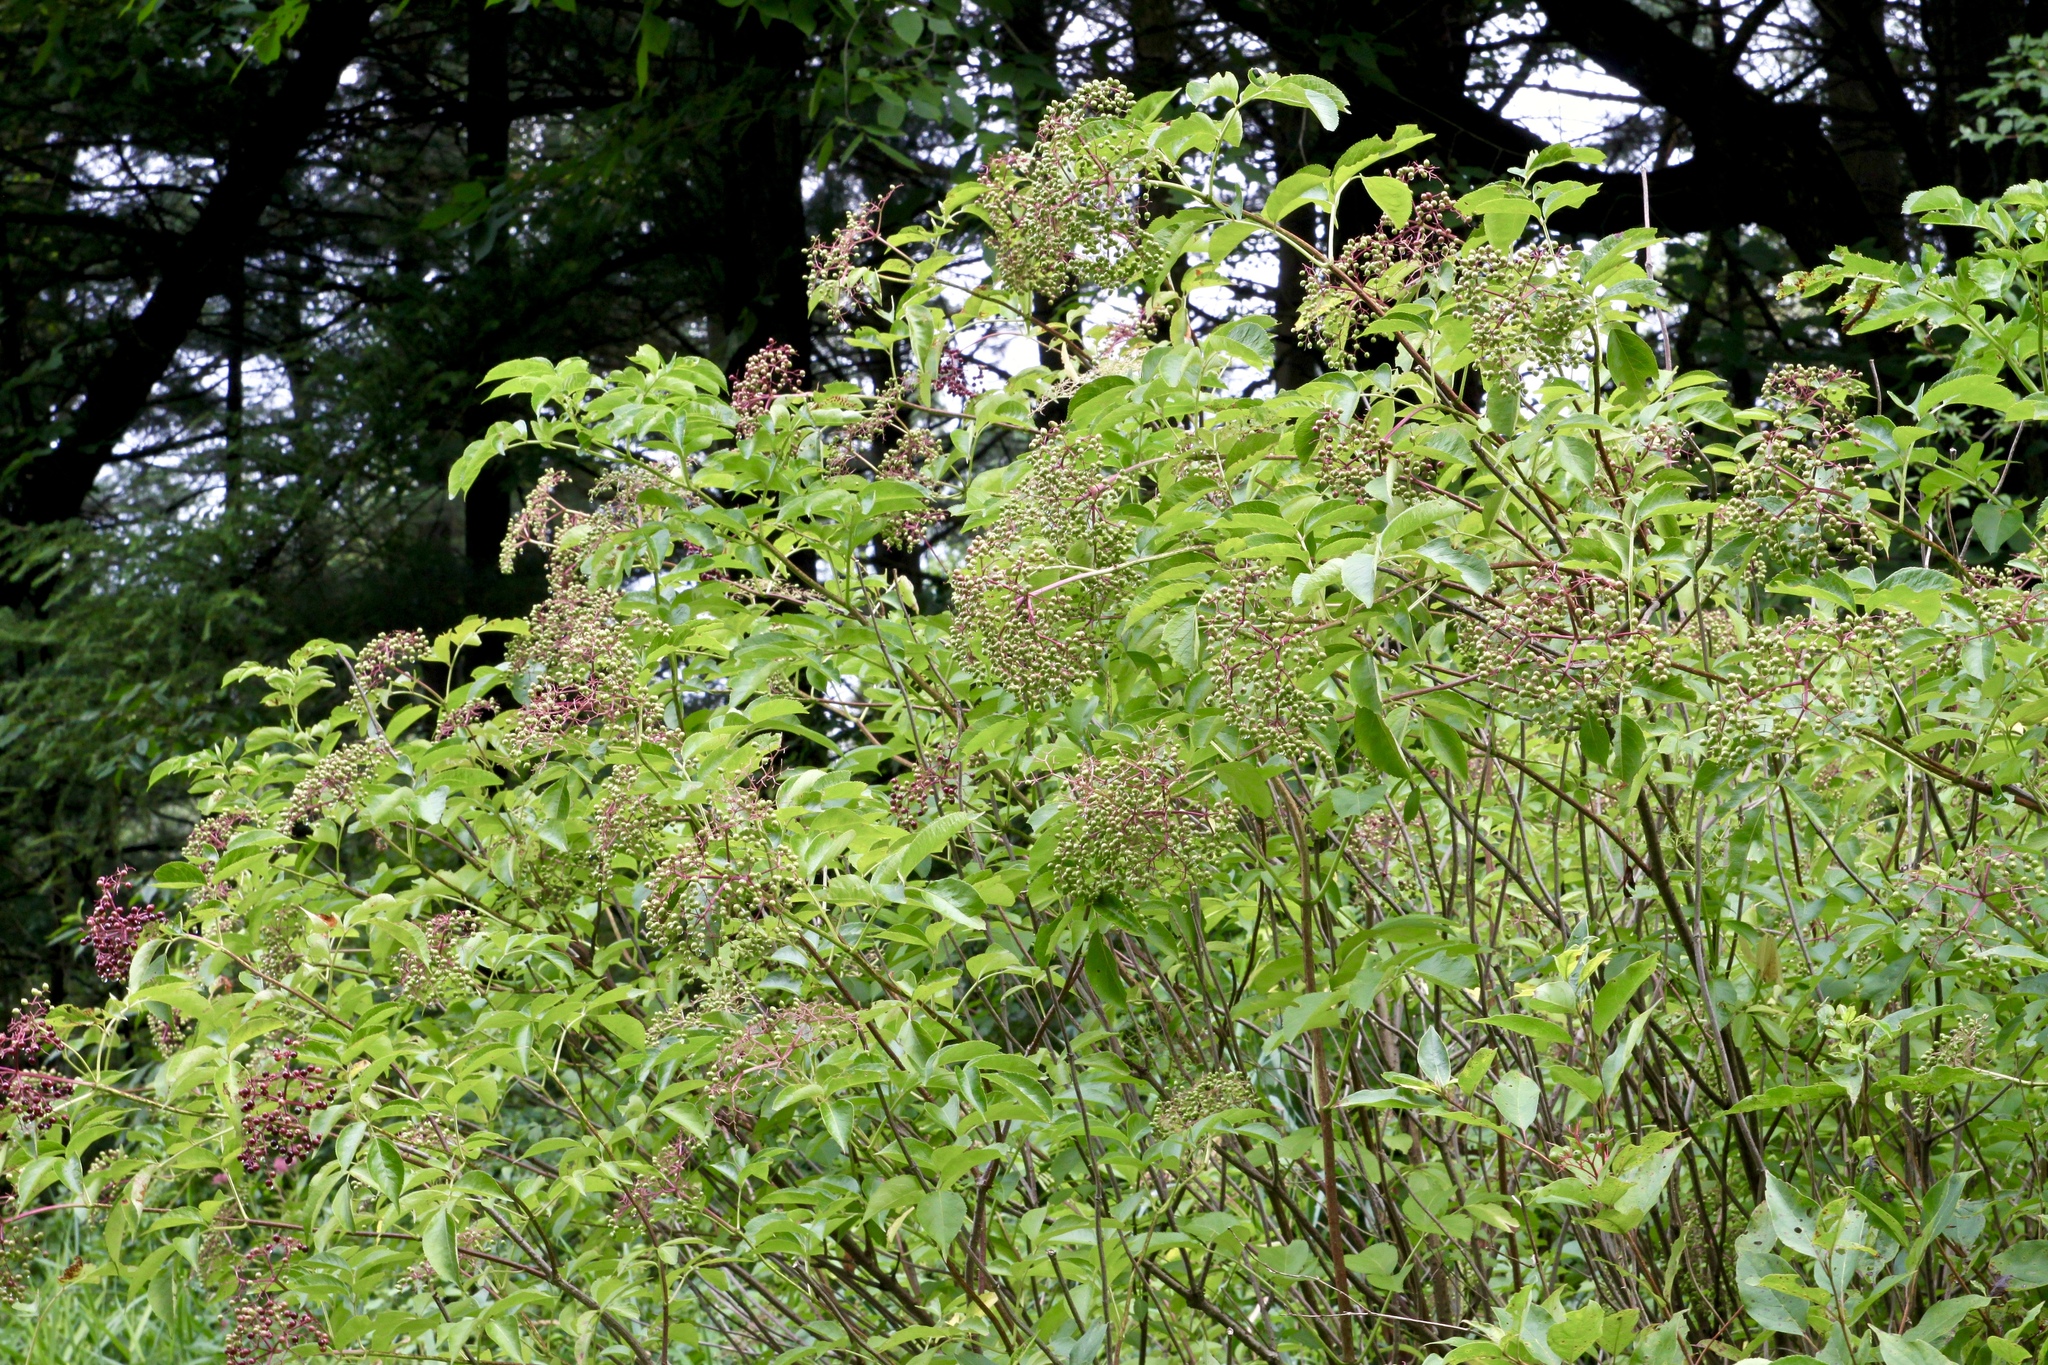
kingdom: Plantae
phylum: Tracheophyta
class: Magnoliopsida
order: Dipsacales
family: Viburnaceae
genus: Sambucus
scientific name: Sambucus canadensis
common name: American elder
